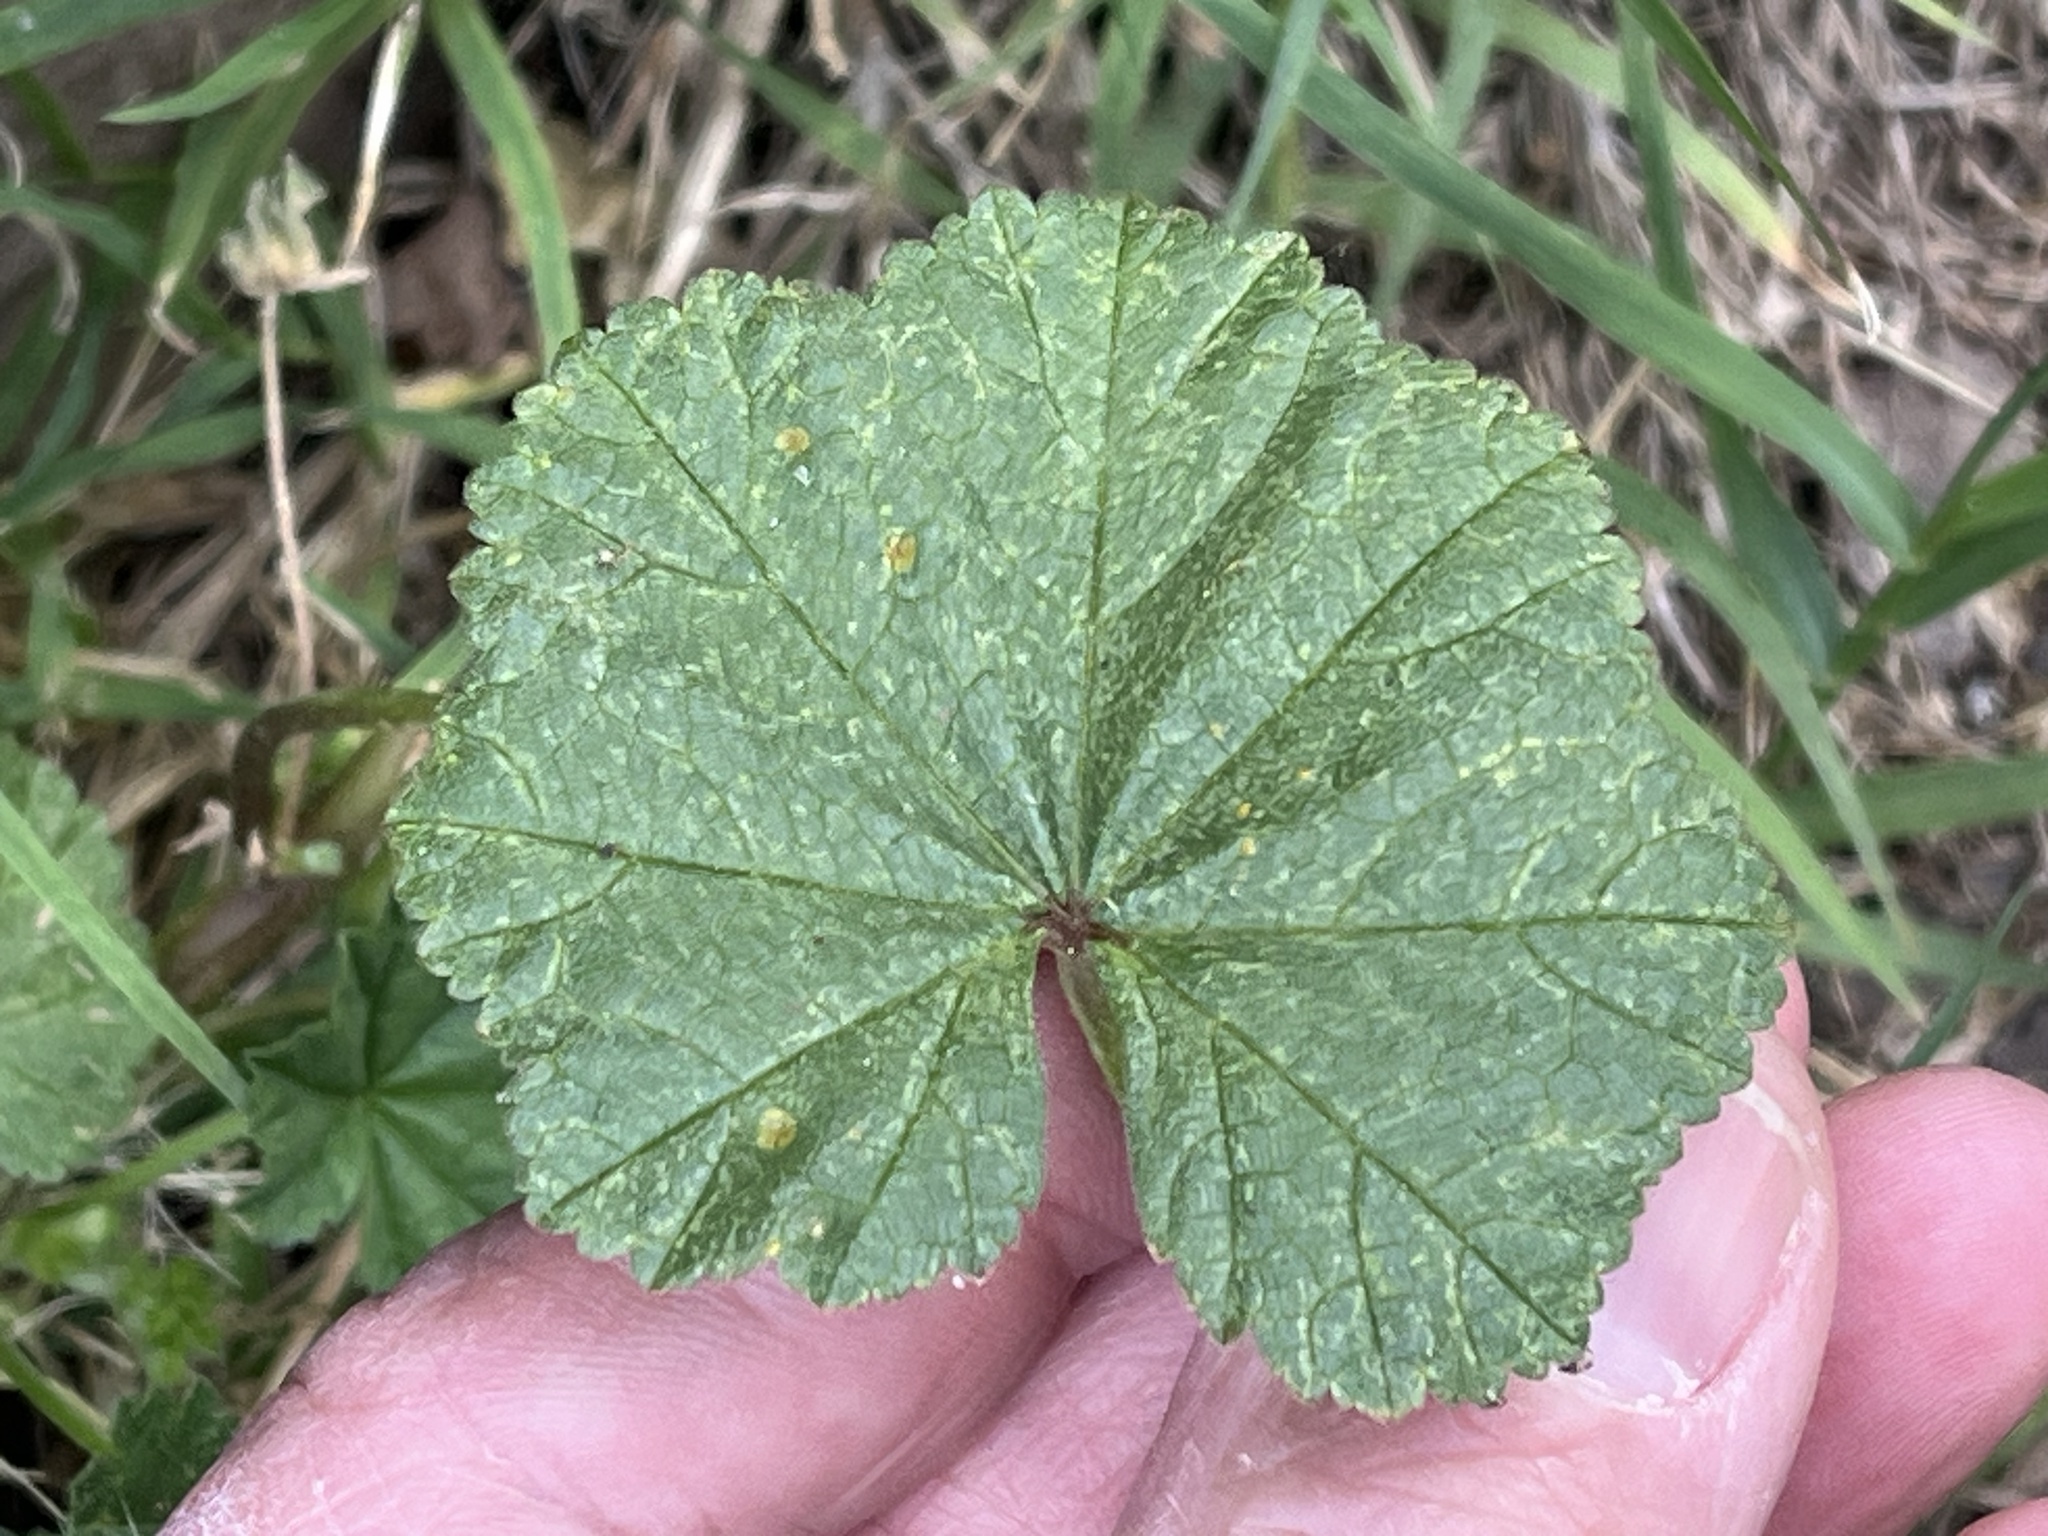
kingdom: Plantae
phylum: Tracheophyta
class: Magnoliopsida
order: Malvales
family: Malvaceae
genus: Malva
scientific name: Malva neglecta
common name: Common mallow
